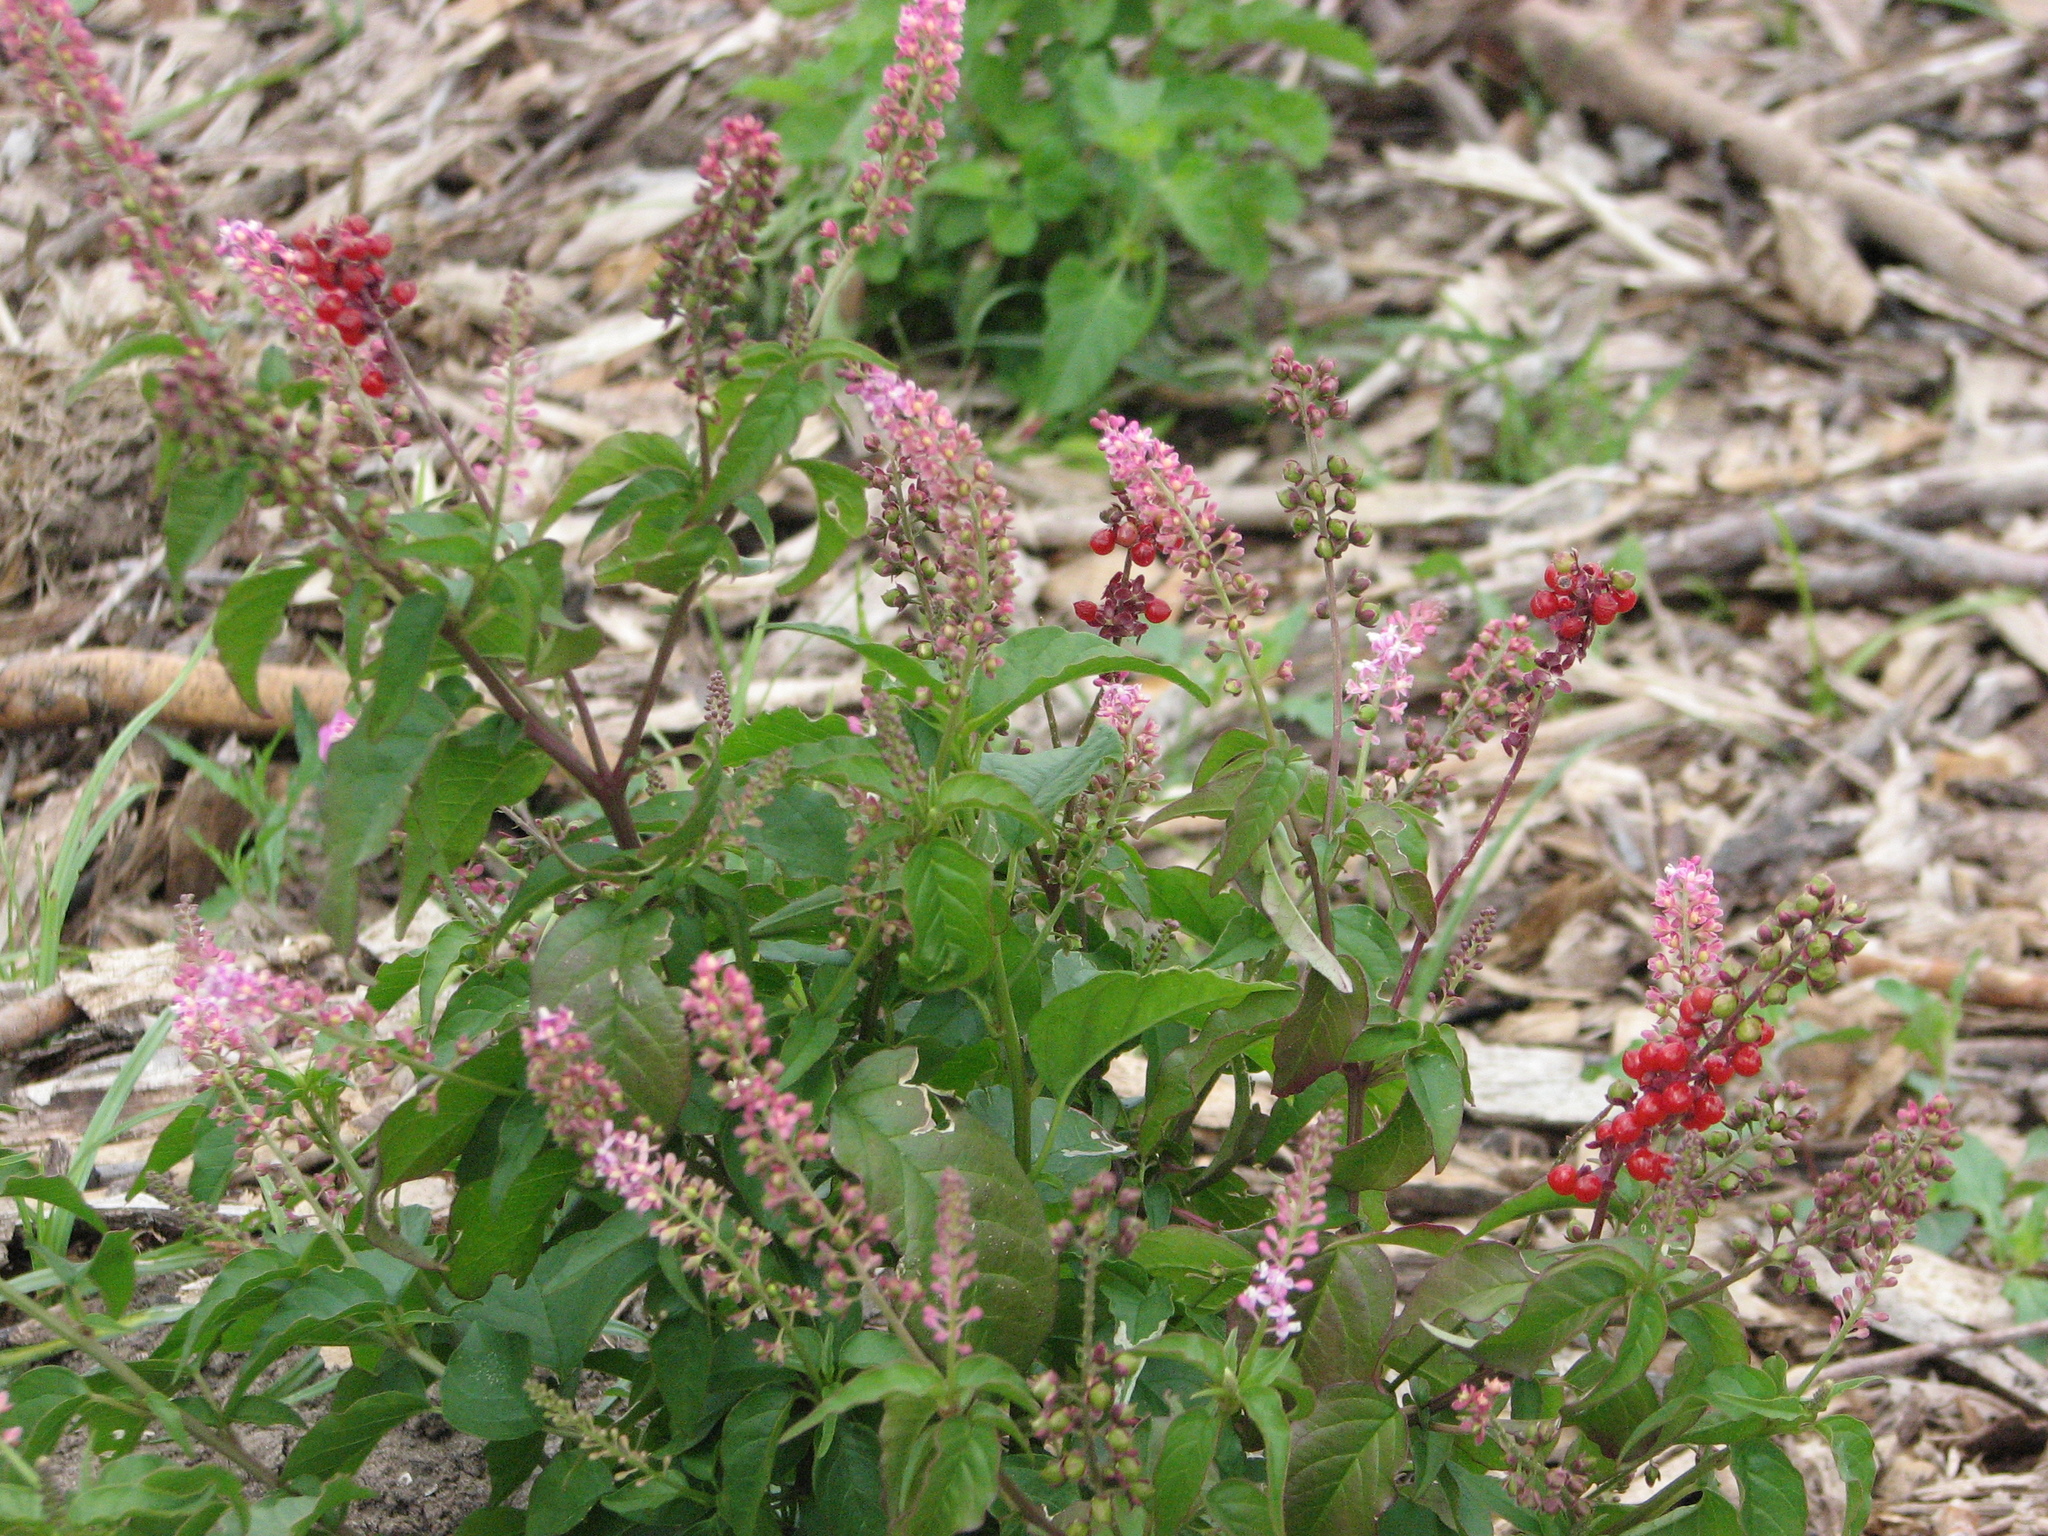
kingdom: Plantae
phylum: Tracheophyta
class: Magnoliopsida
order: Caryophyllales
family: Phytolaccaceae
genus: Rivina
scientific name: Rivina humilis
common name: Rougeplant
